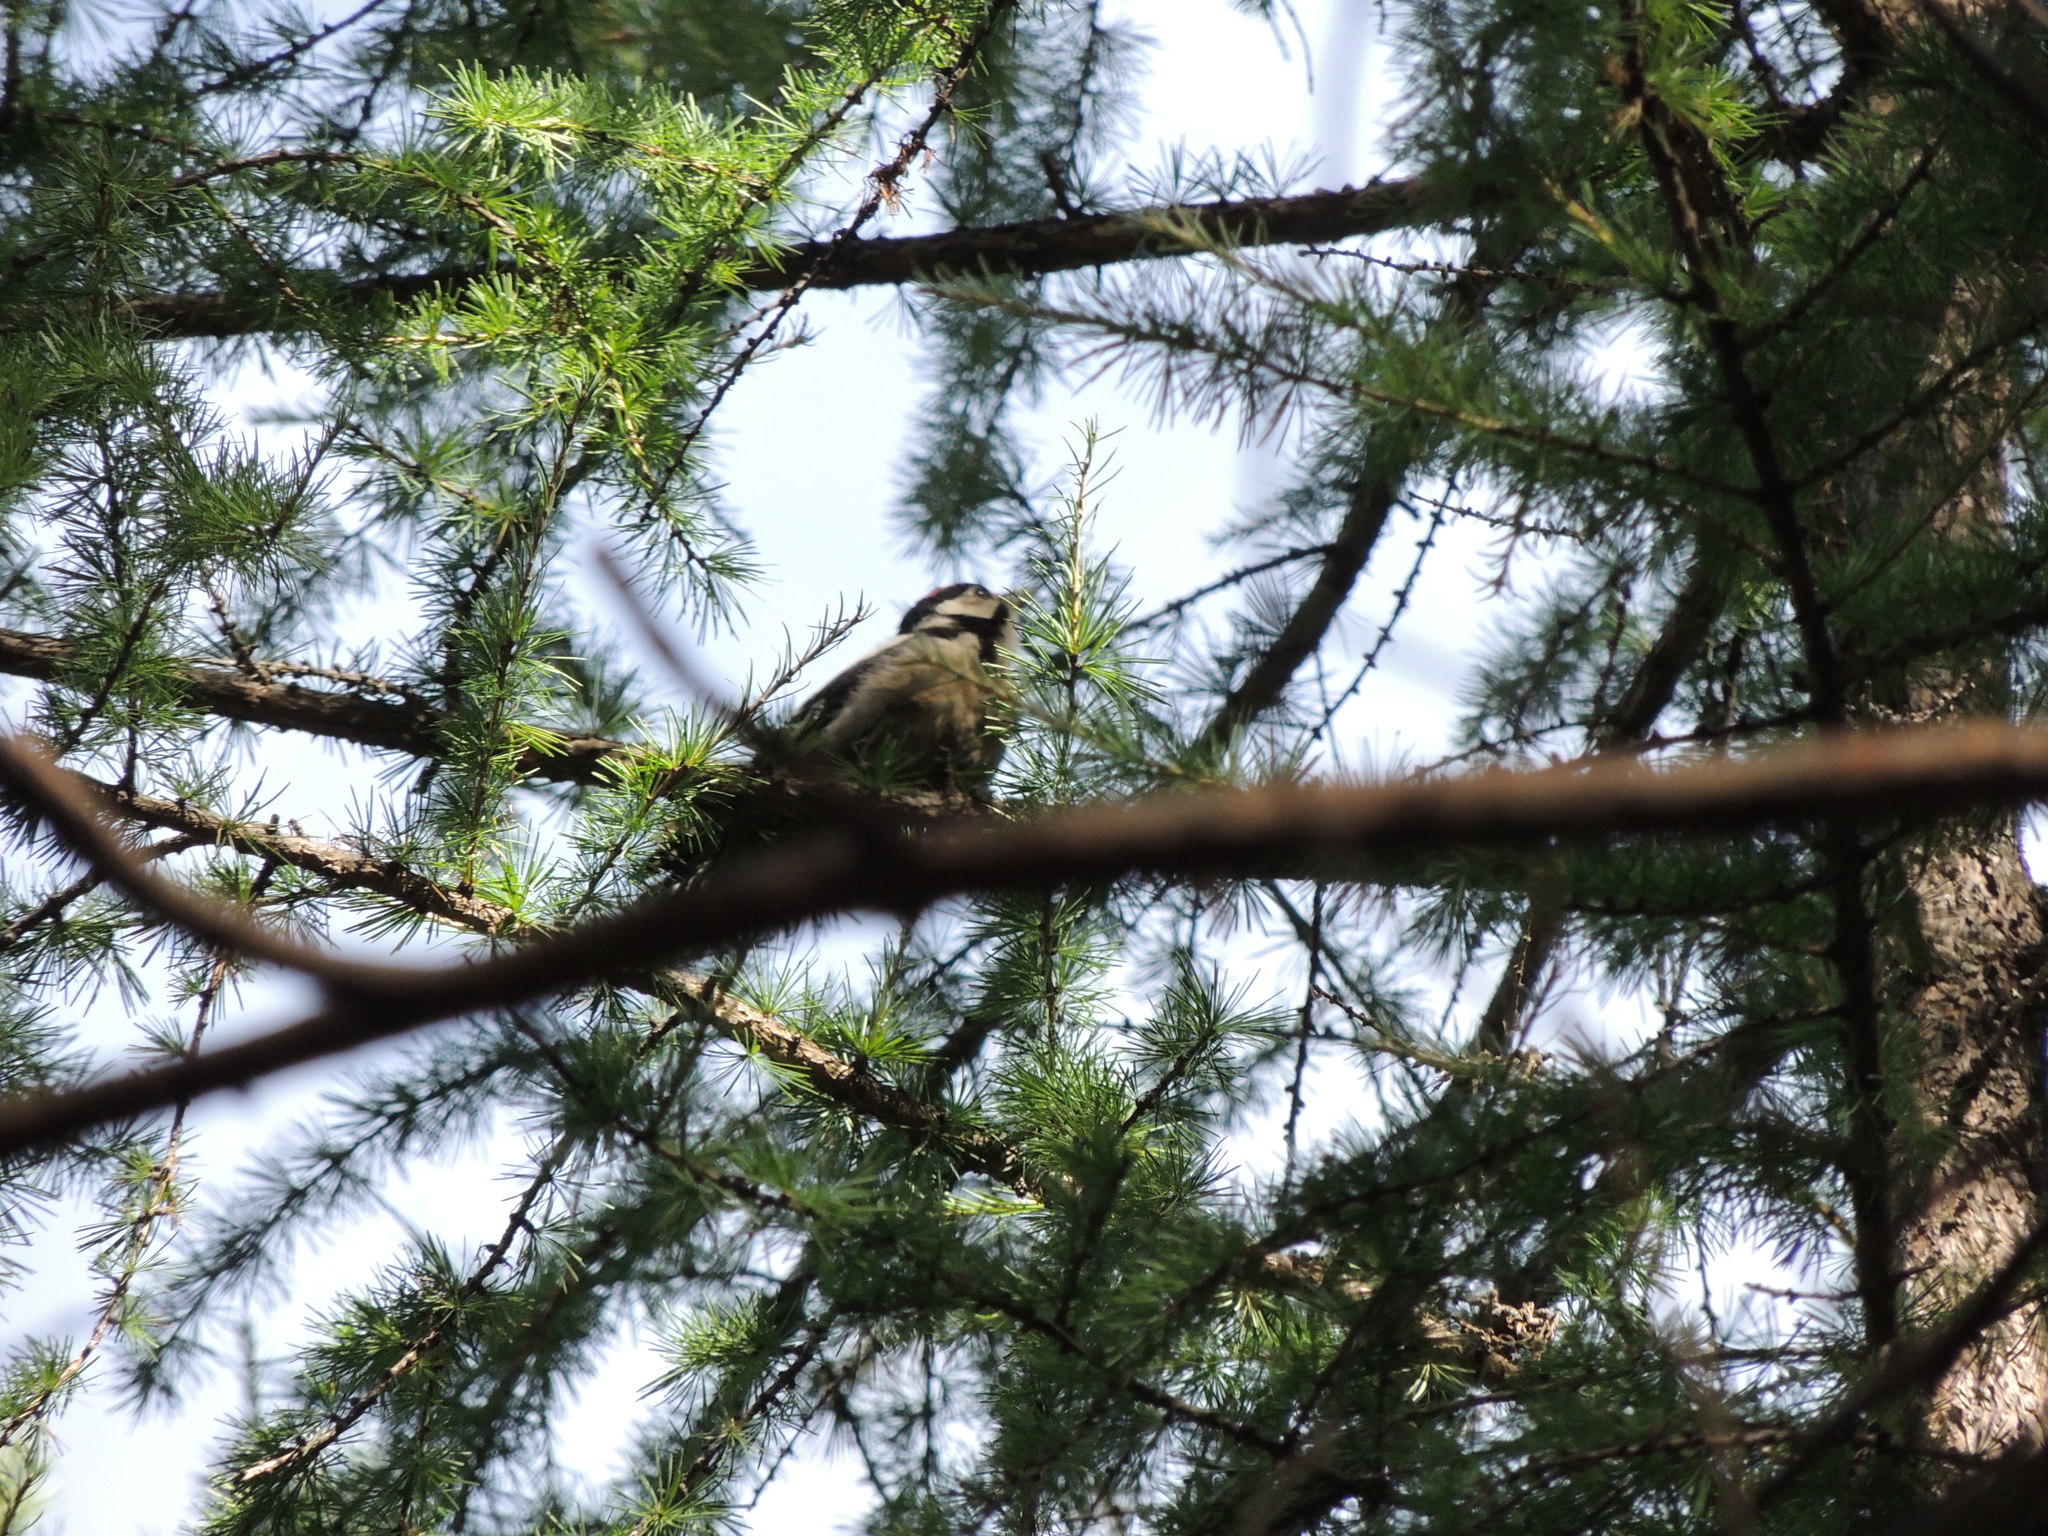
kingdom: Animalia
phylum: Chordata
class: Aves
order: Piciformes
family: Picidae
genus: Dendrocopos
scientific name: Dendrocopos major
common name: Great spotted woodpecker
